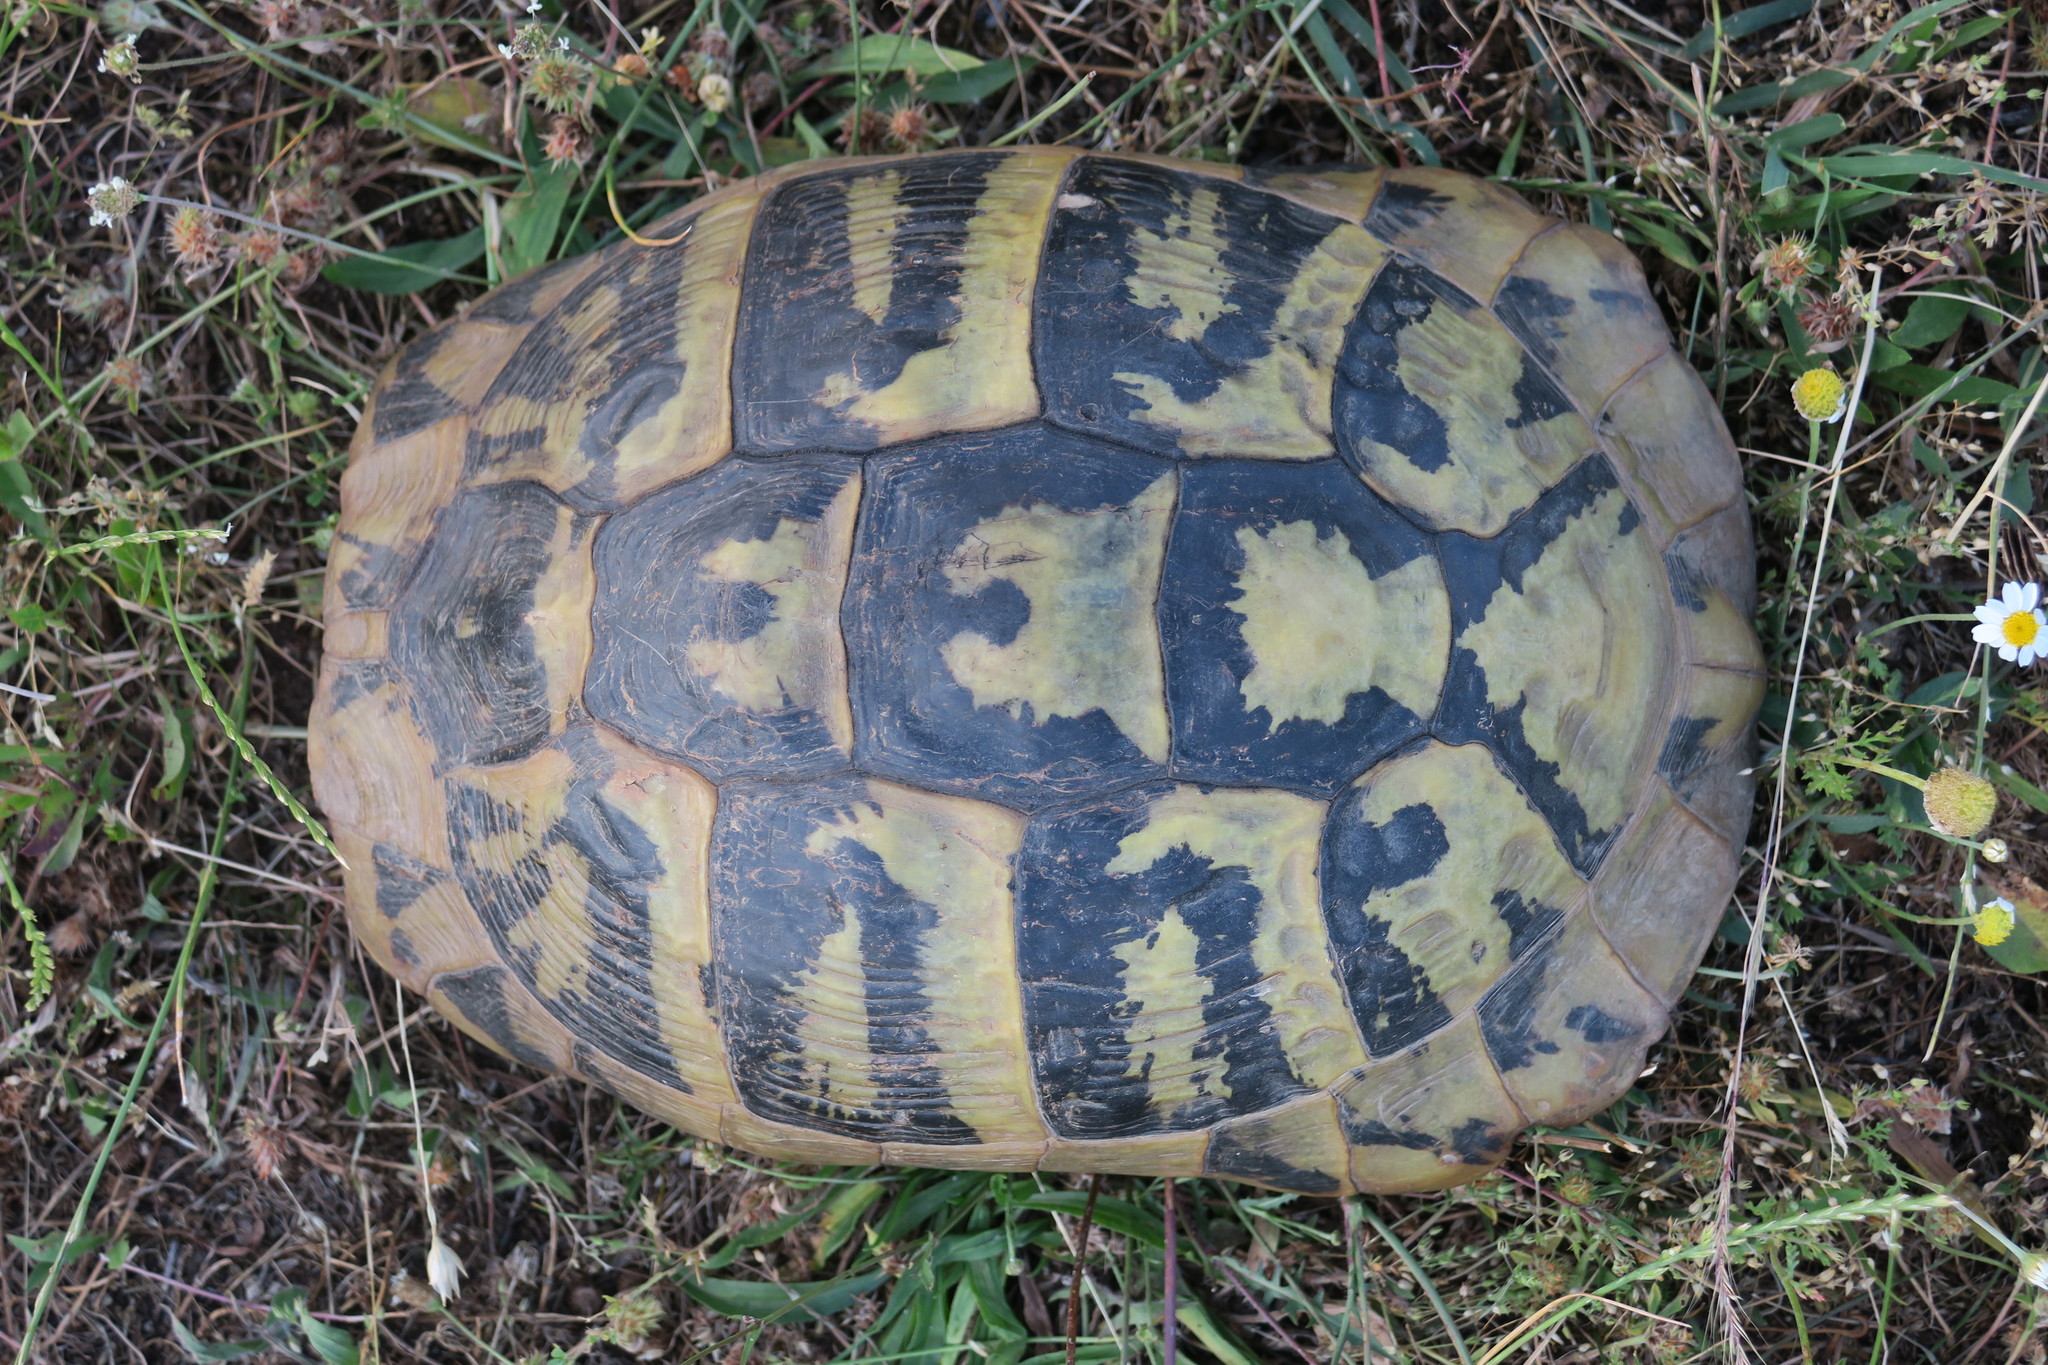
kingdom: Animalia
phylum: Chordata
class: Testudines
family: Testudinidae
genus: Testudo
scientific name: Testudo hermanni
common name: Hermann's tortoise
